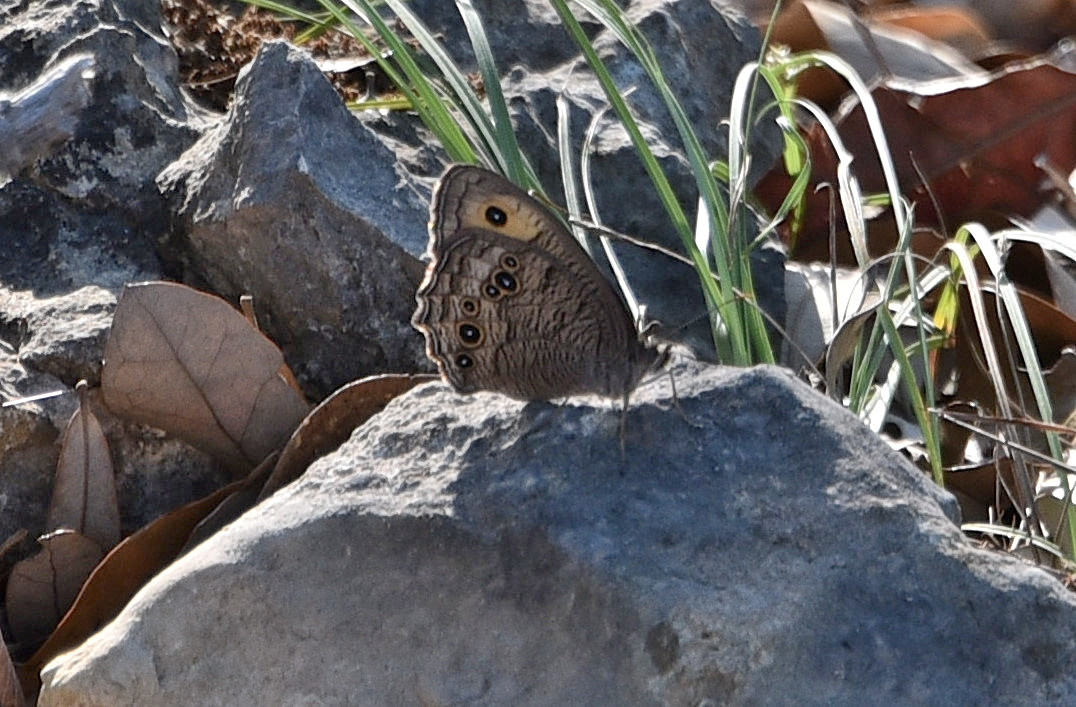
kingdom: Animalia
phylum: Arthropoda
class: Insecta
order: Lepidoptera
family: Nymphalidae
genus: Cercyonis
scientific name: Cercyonis pegala
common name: Common wood-nymph
